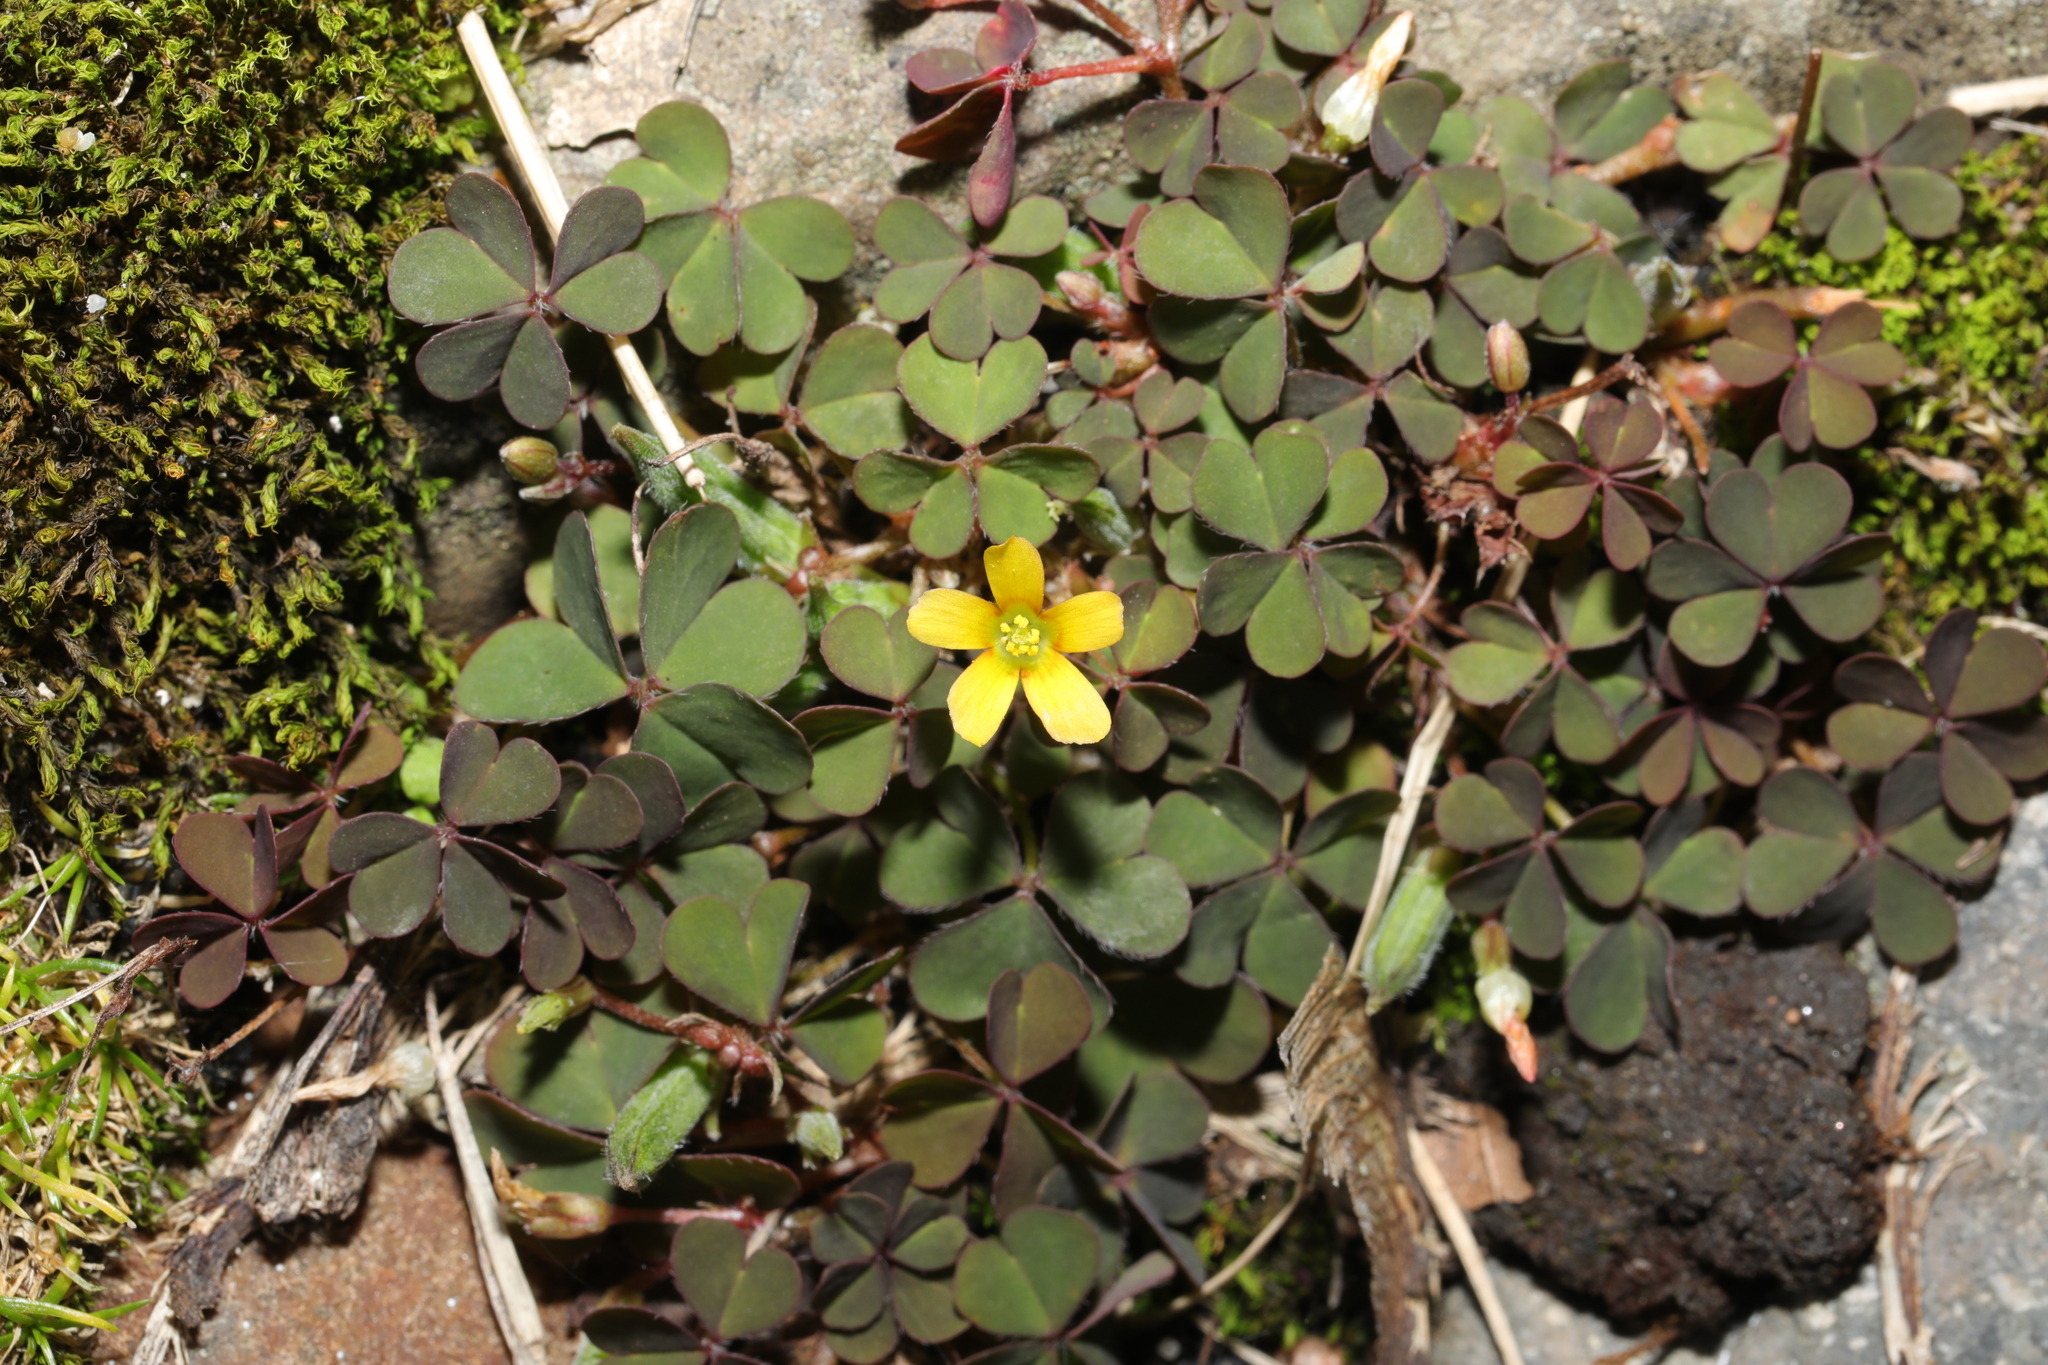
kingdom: Plantae
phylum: Tracheophyta
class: Magnoliopsida
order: Oxalidales
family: Oxalidaceae
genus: Oxalis
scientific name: Oxalis corniculata
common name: Procumbent yellow-sorrel
